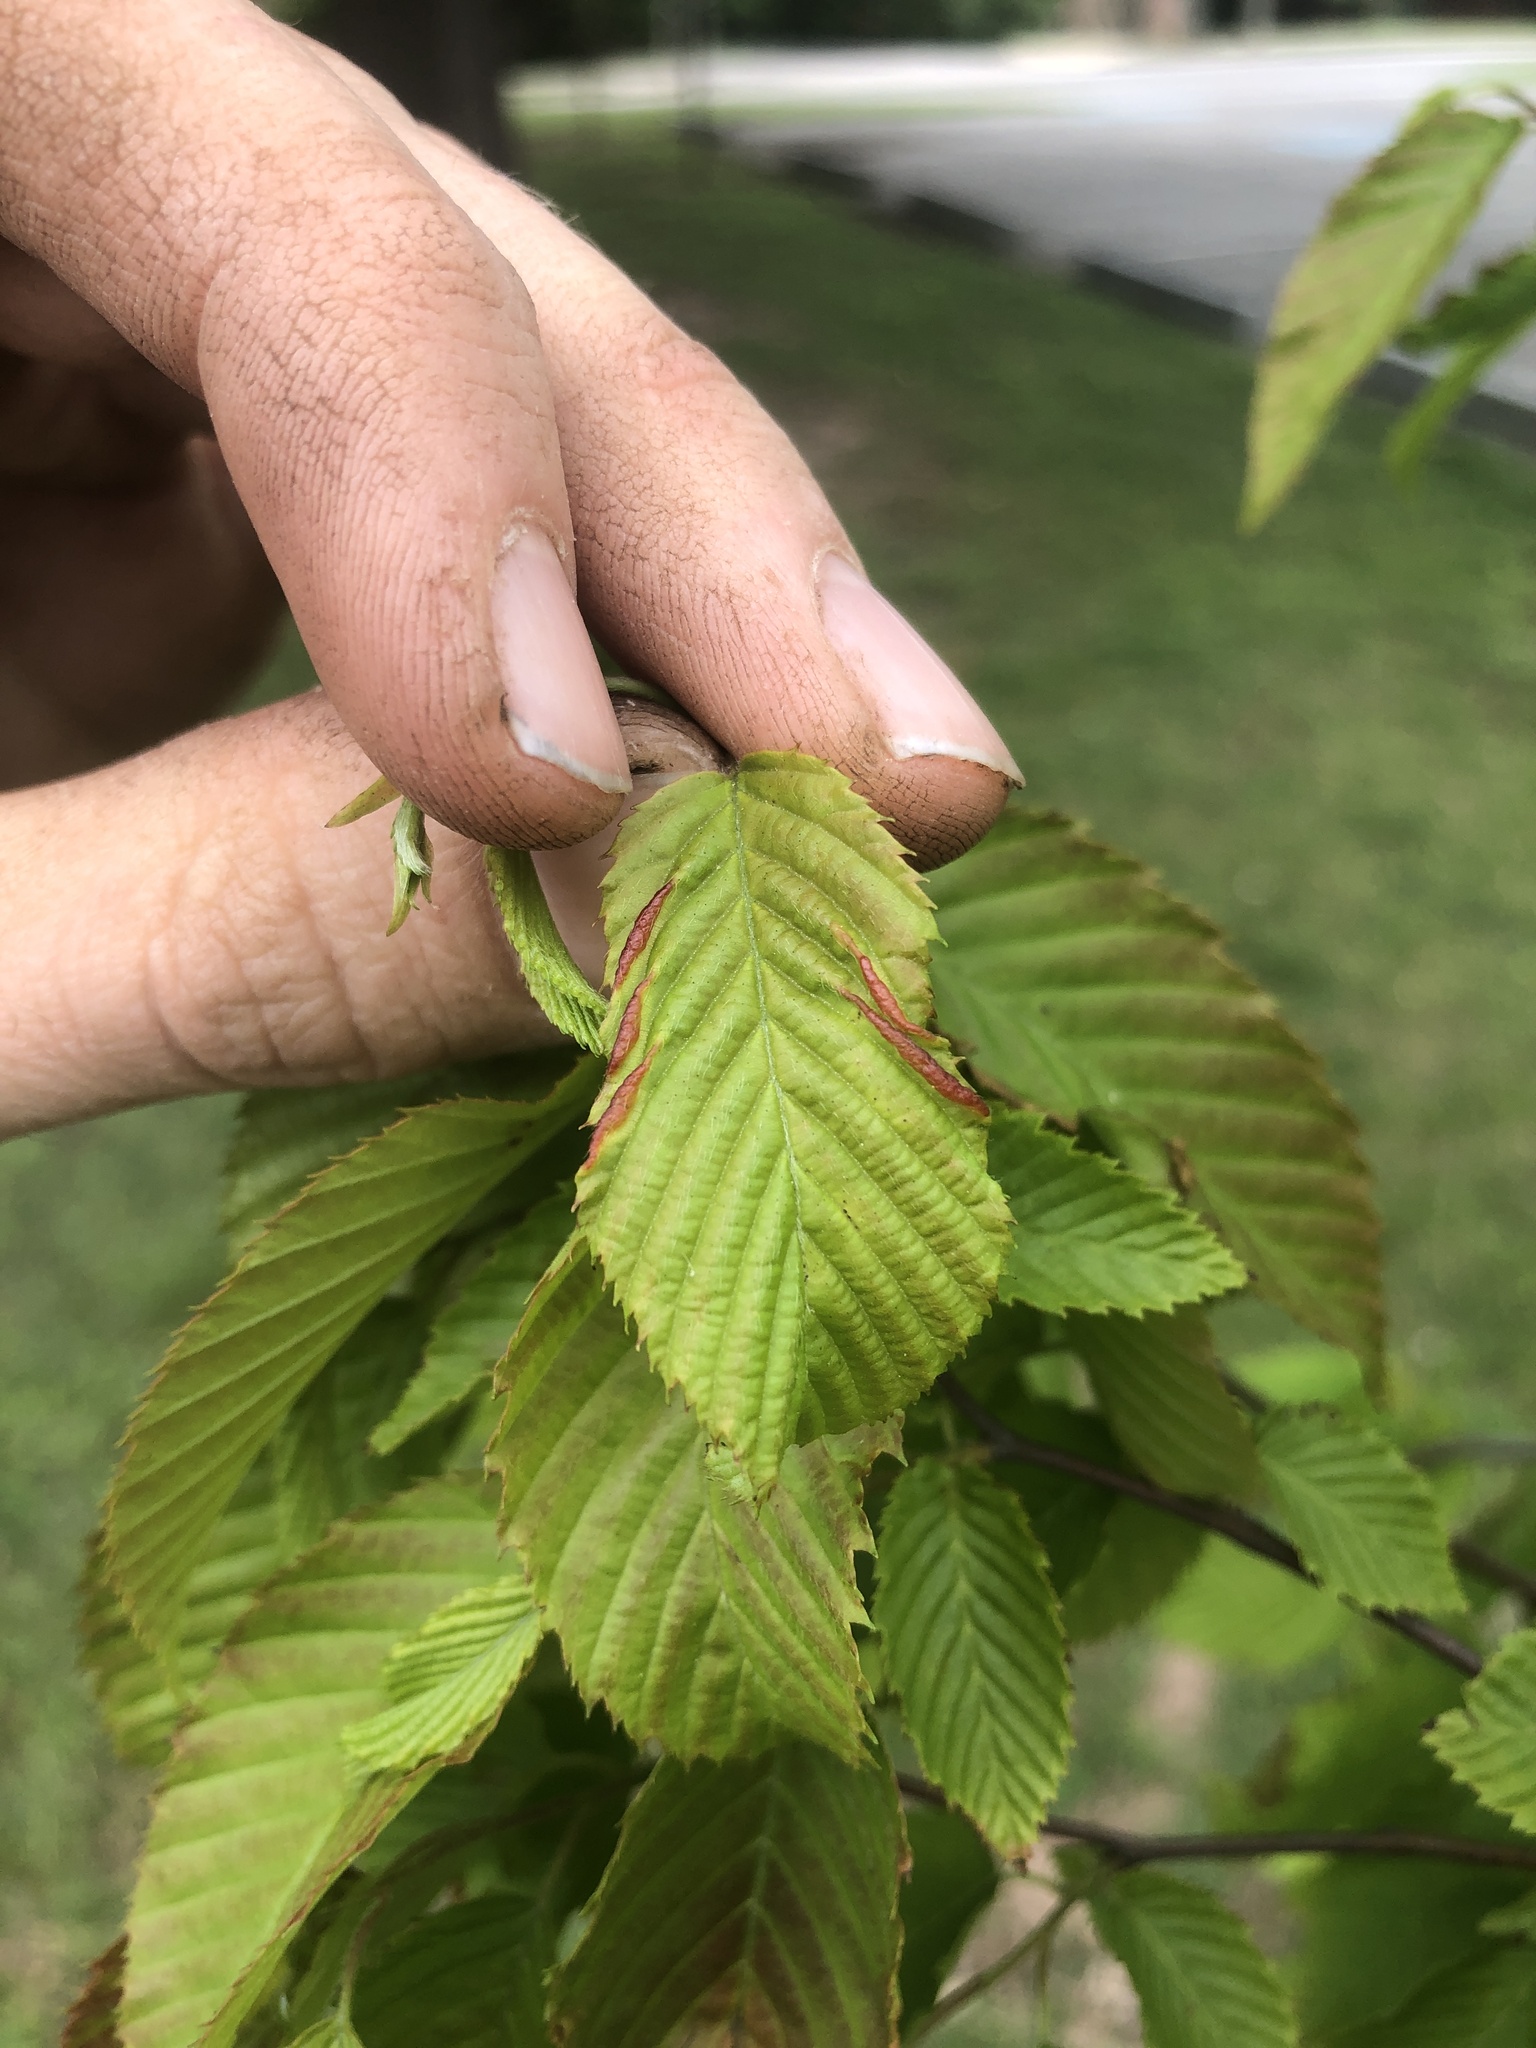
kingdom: Animalia
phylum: Arthropoda
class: Insecta
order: Diptera
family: Cecidomyiidae
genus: Dasineura
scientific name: Dasineura pudibunda
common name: Hornbeam leaf gall midge
